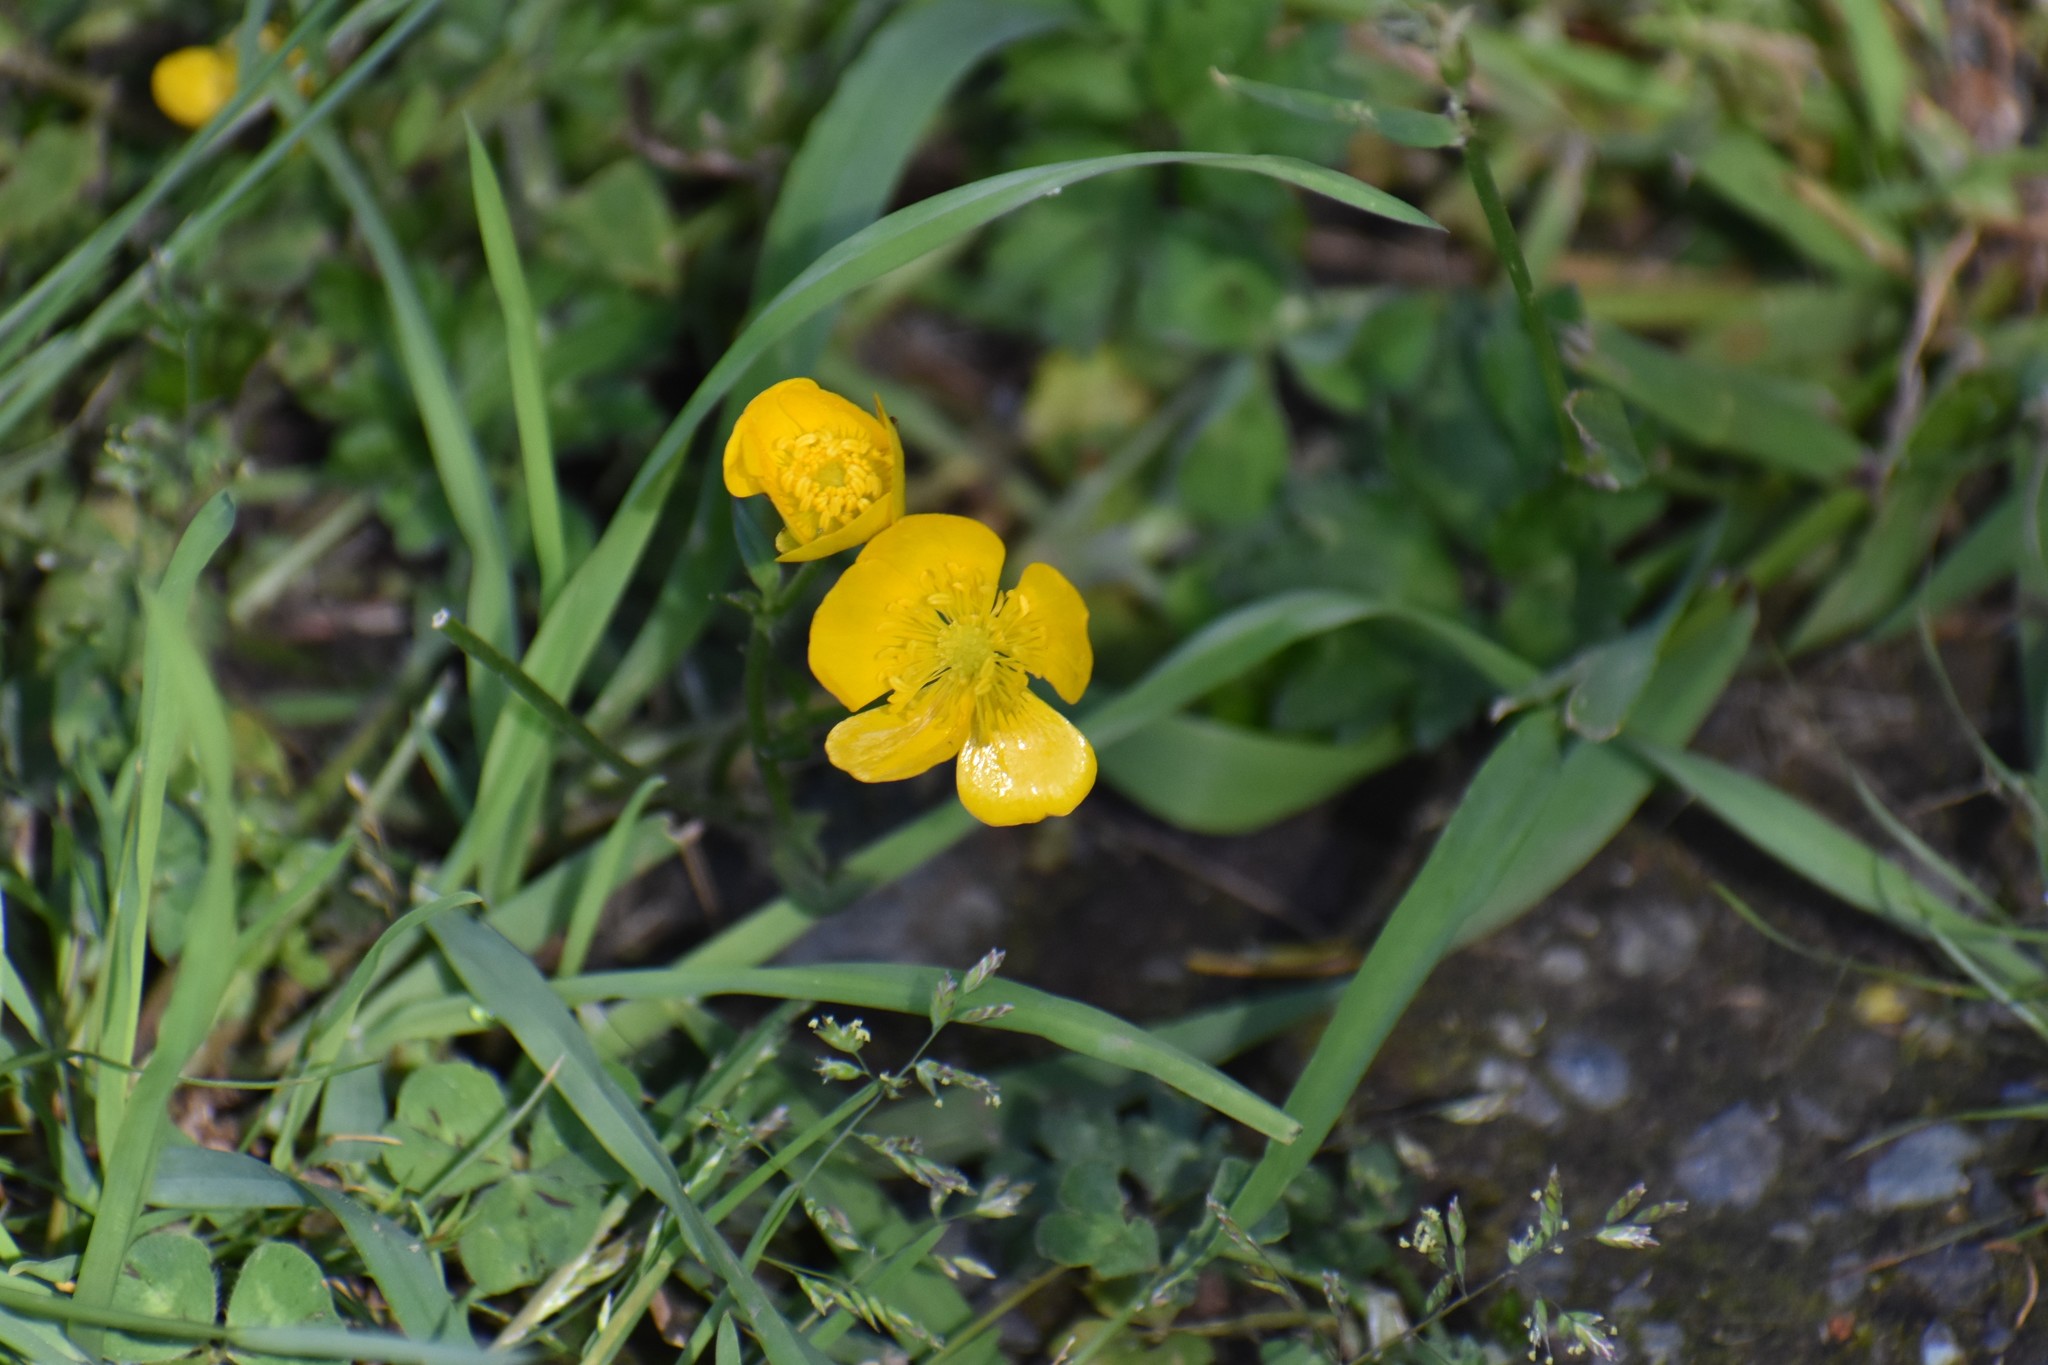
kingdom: Plantae
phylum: Tracheophyta
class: Magnoliopsida
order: Ranunculales
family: Ranunculaceae
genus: Ranunculus
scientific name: Ranunculus repens
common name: Creeping buttercup
